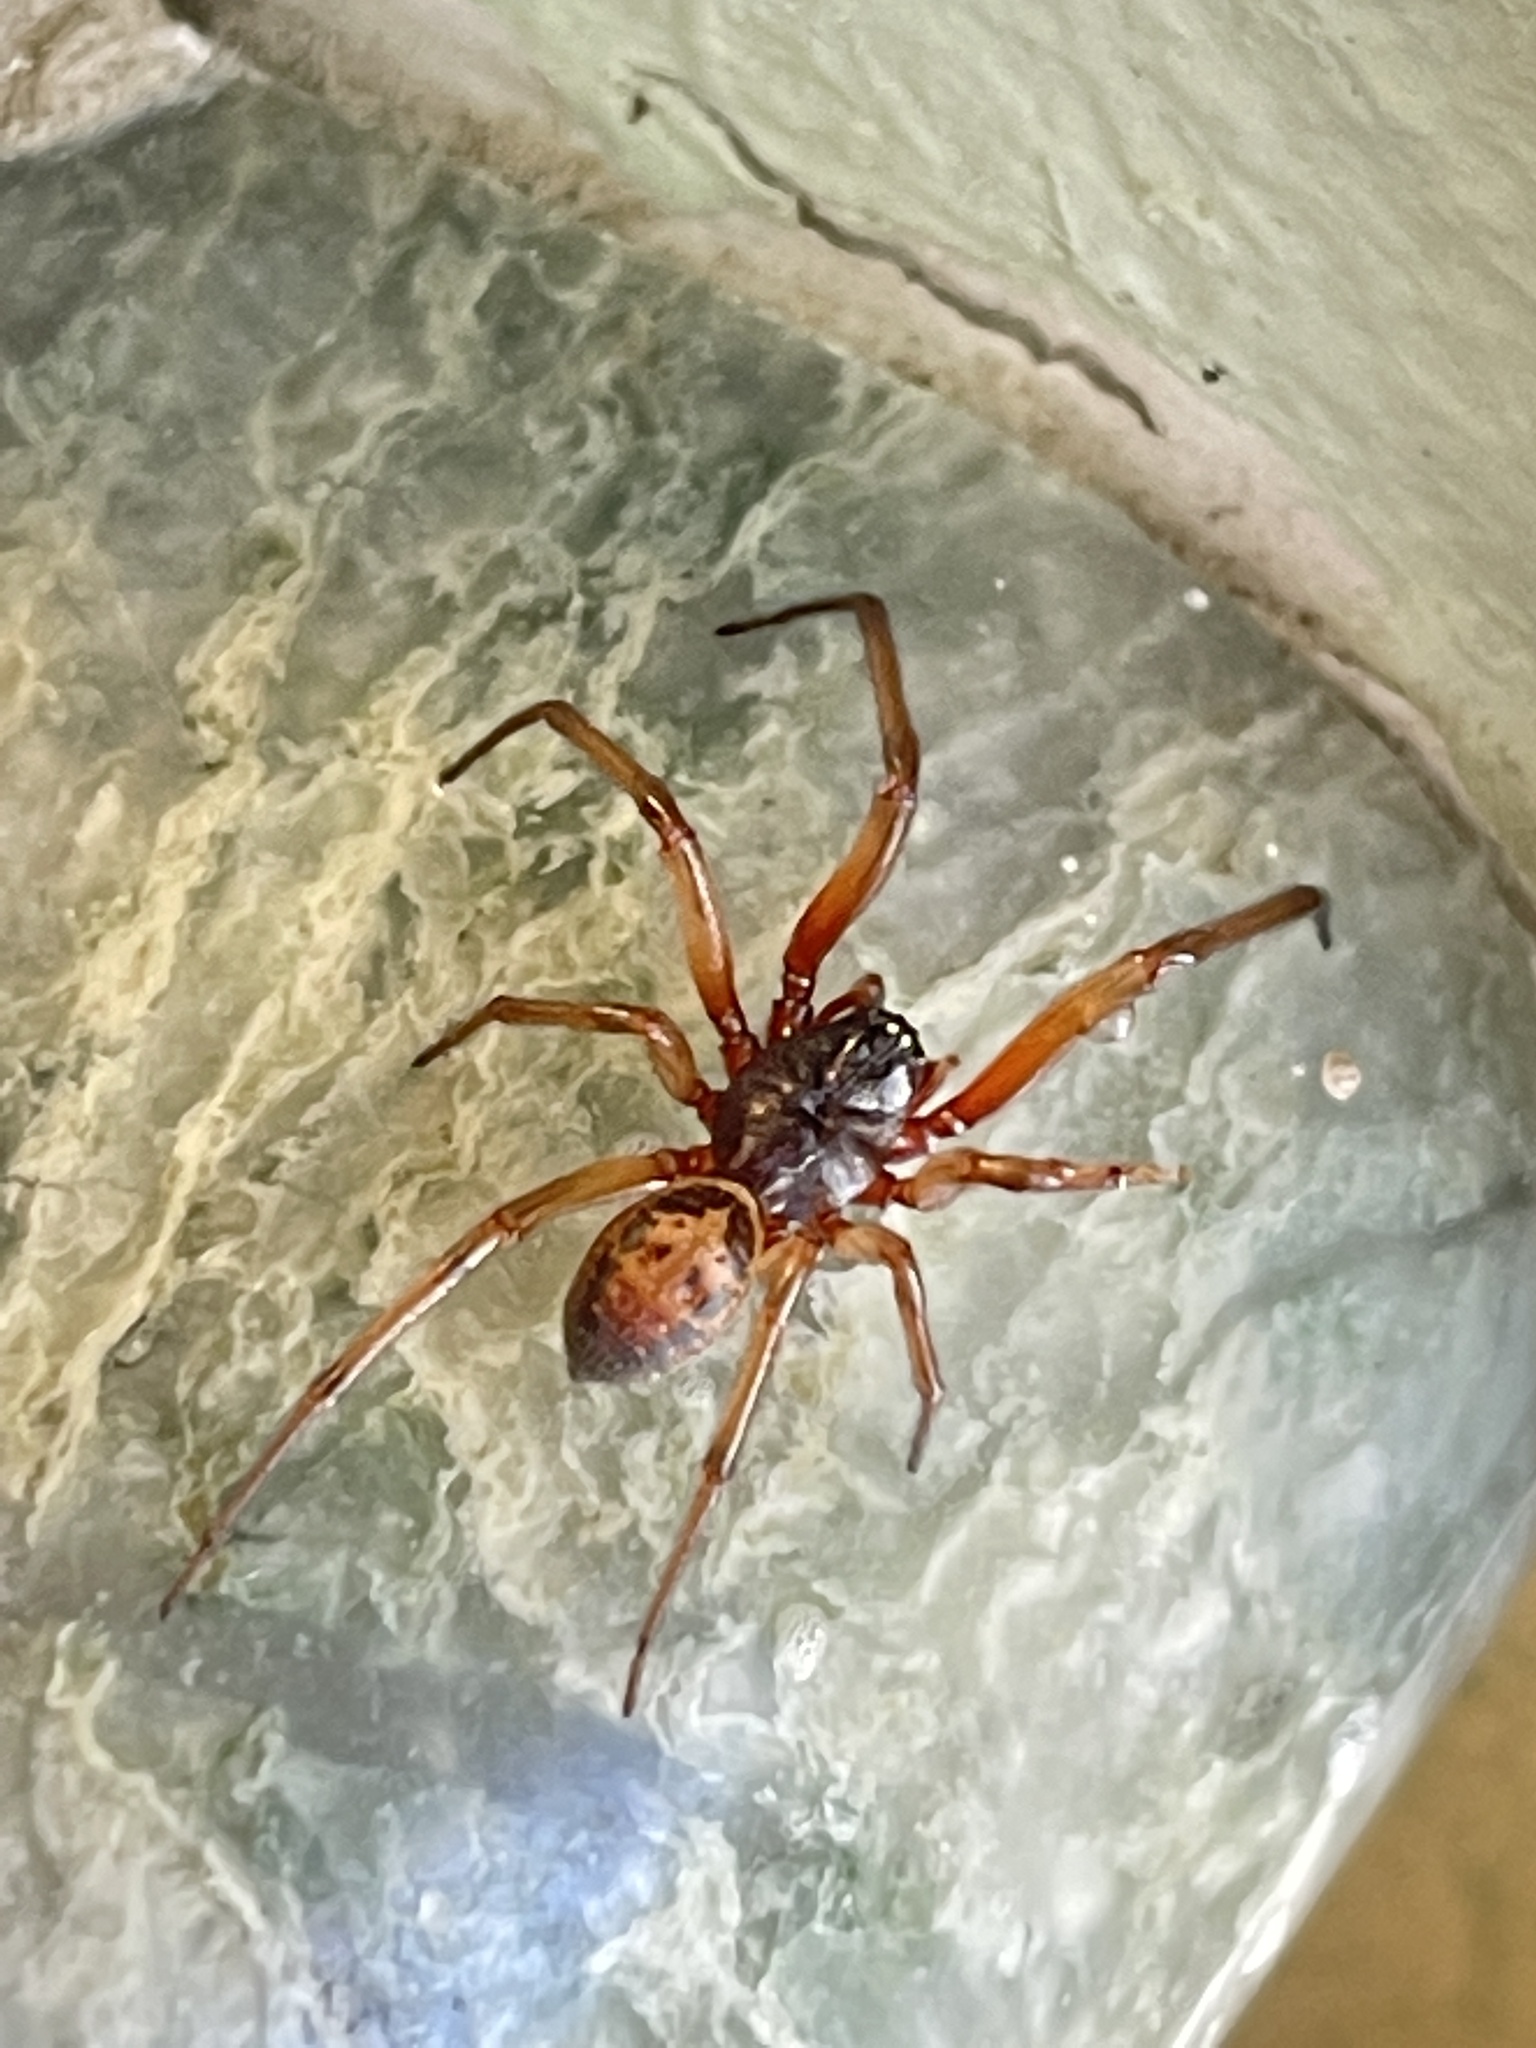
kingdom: Animalia
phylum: Arthropoda
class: Arachnida
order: Araneae
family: Theridiidae
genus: Steatoda
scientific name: Steatoda nobilis
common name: Cobweb weaver
